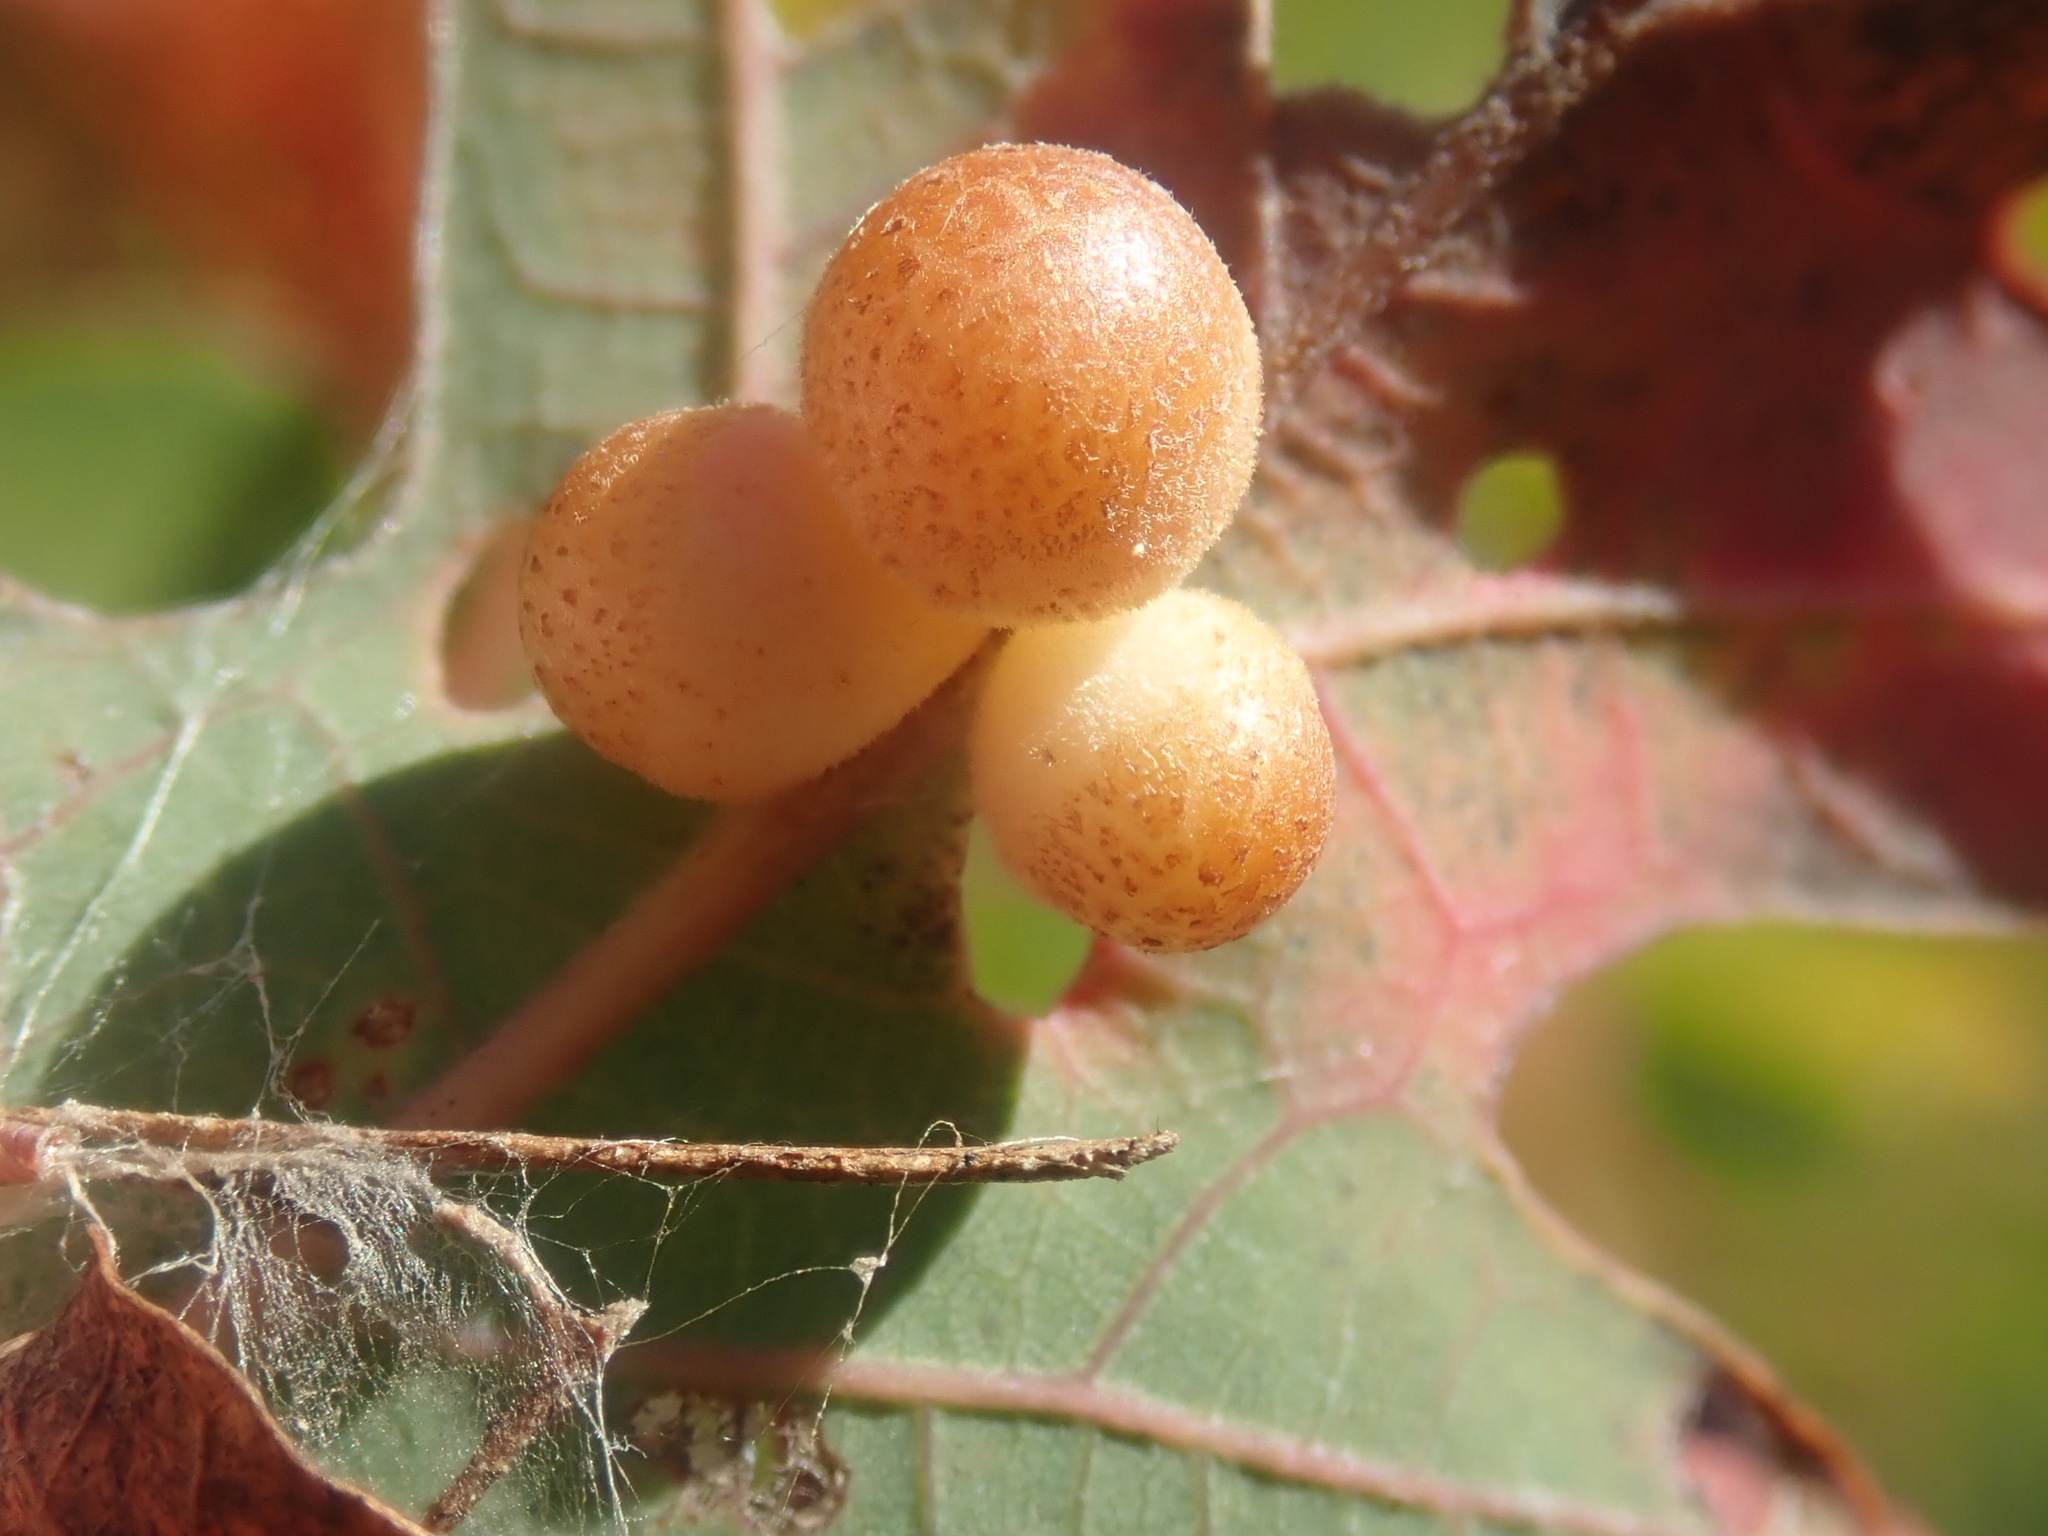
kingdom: Animalia
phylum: Arthropoda
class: Insecta
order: Hymenoptera
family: Cynipidae
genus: Andricus
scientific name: Andricus
